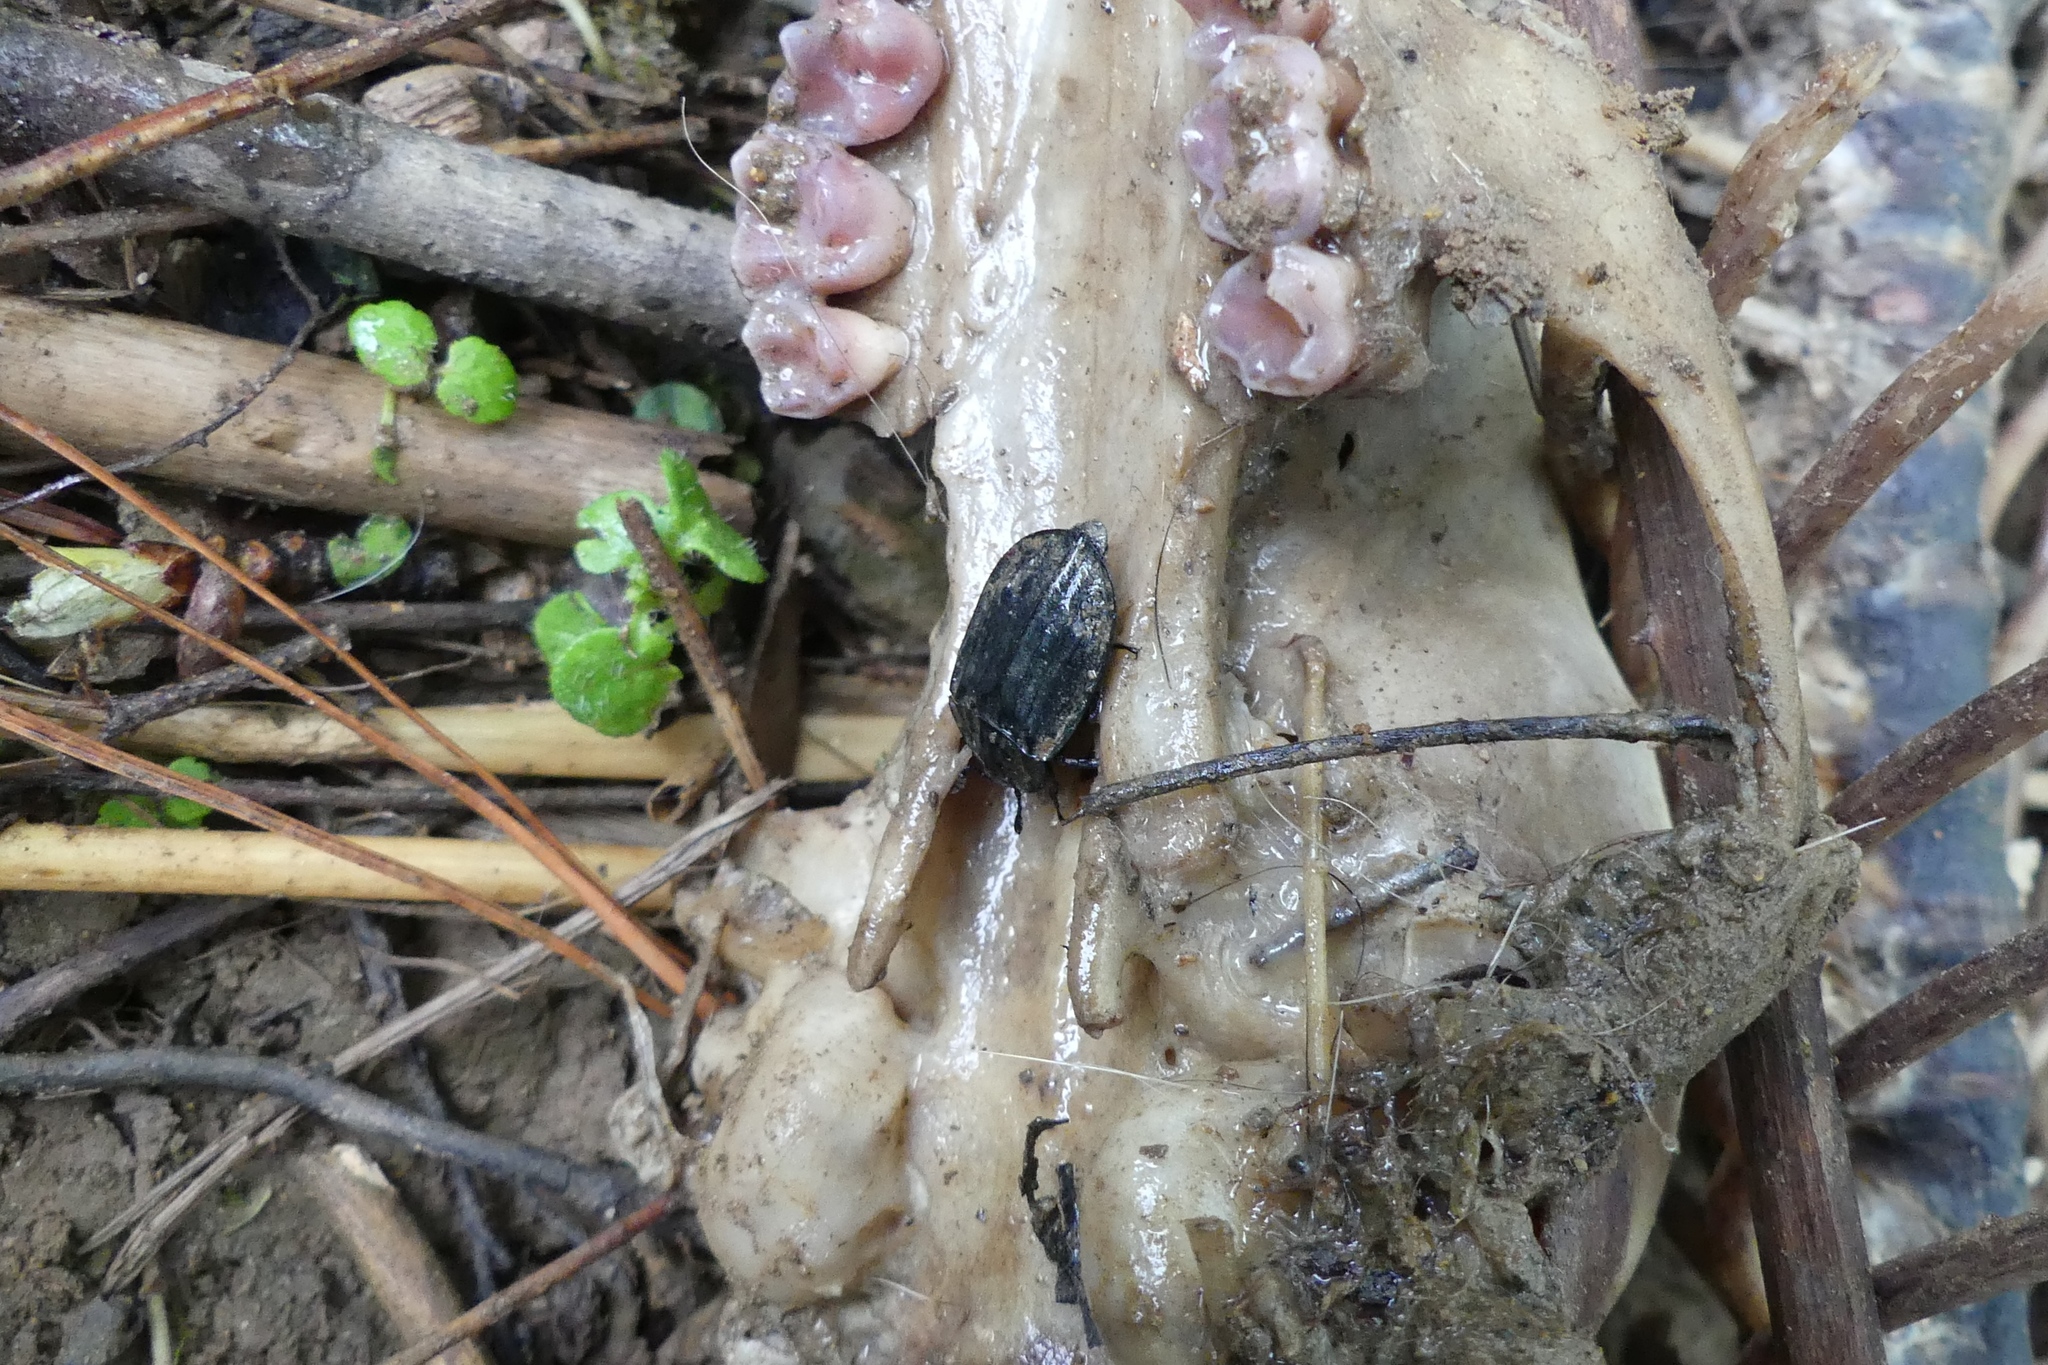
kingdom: Animalia
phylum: Arthropoda
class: Insecta
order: Coleoptera
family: Staphylinidae
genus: Oiceoptoma
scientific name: Oiceoptoma rugulosum
